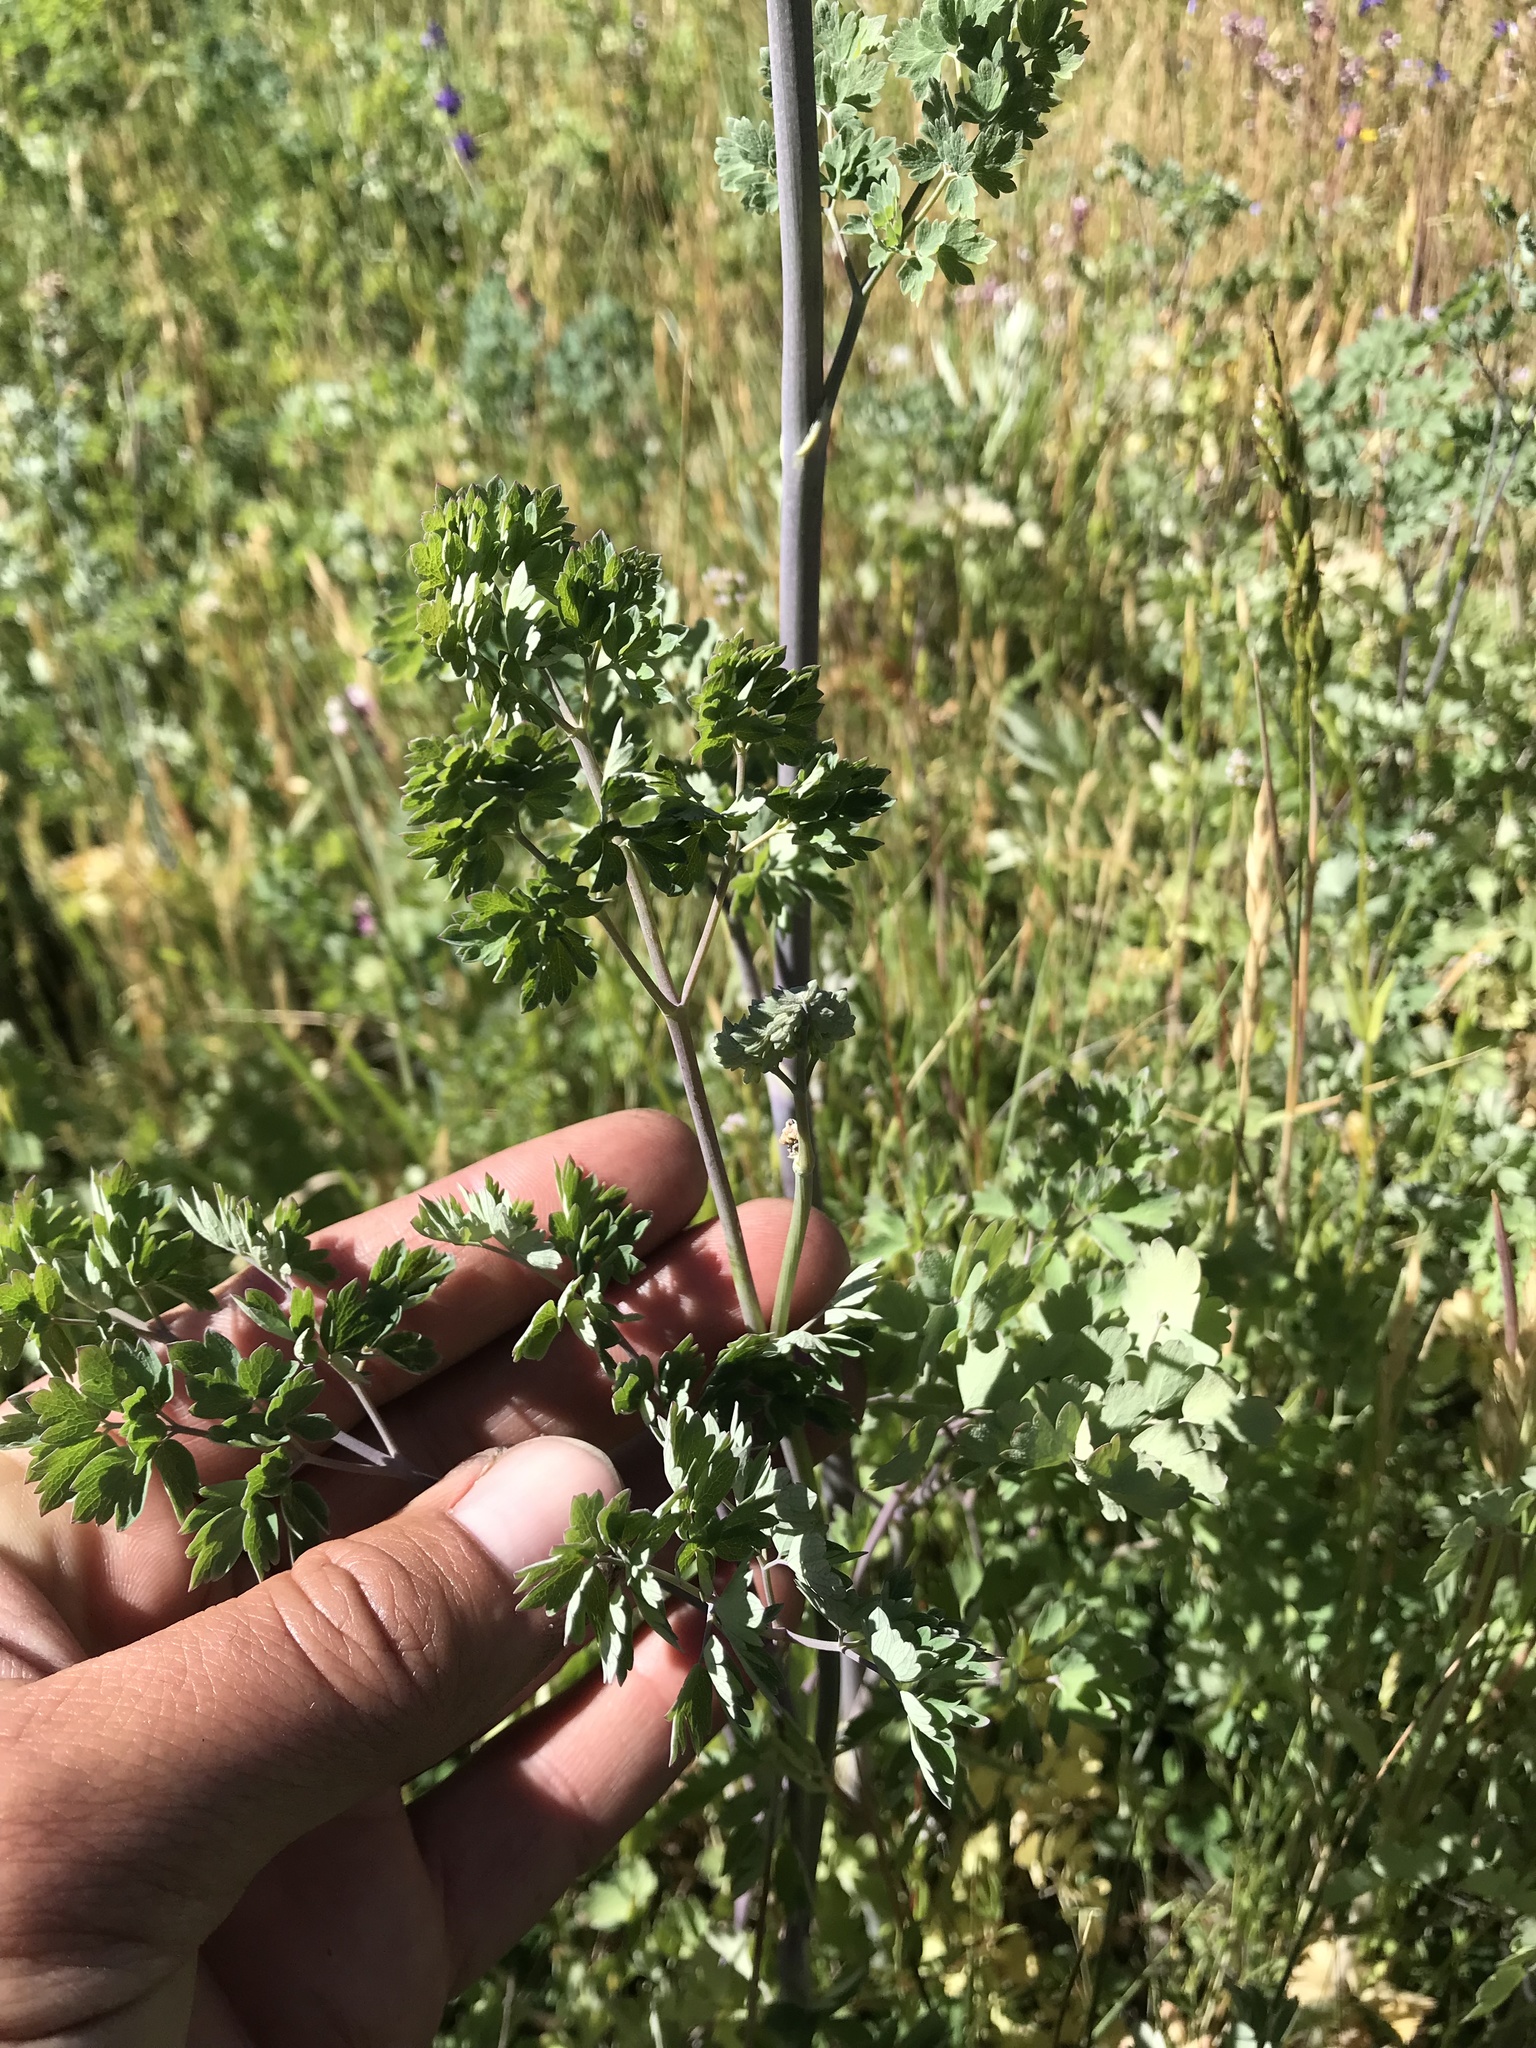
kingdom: Plantae
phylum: Tracheophyta
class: Magnoliopsida
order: Ranunculales
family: Ranunculaceae
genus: Thalictrum
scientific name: Thalictrum fendleri
